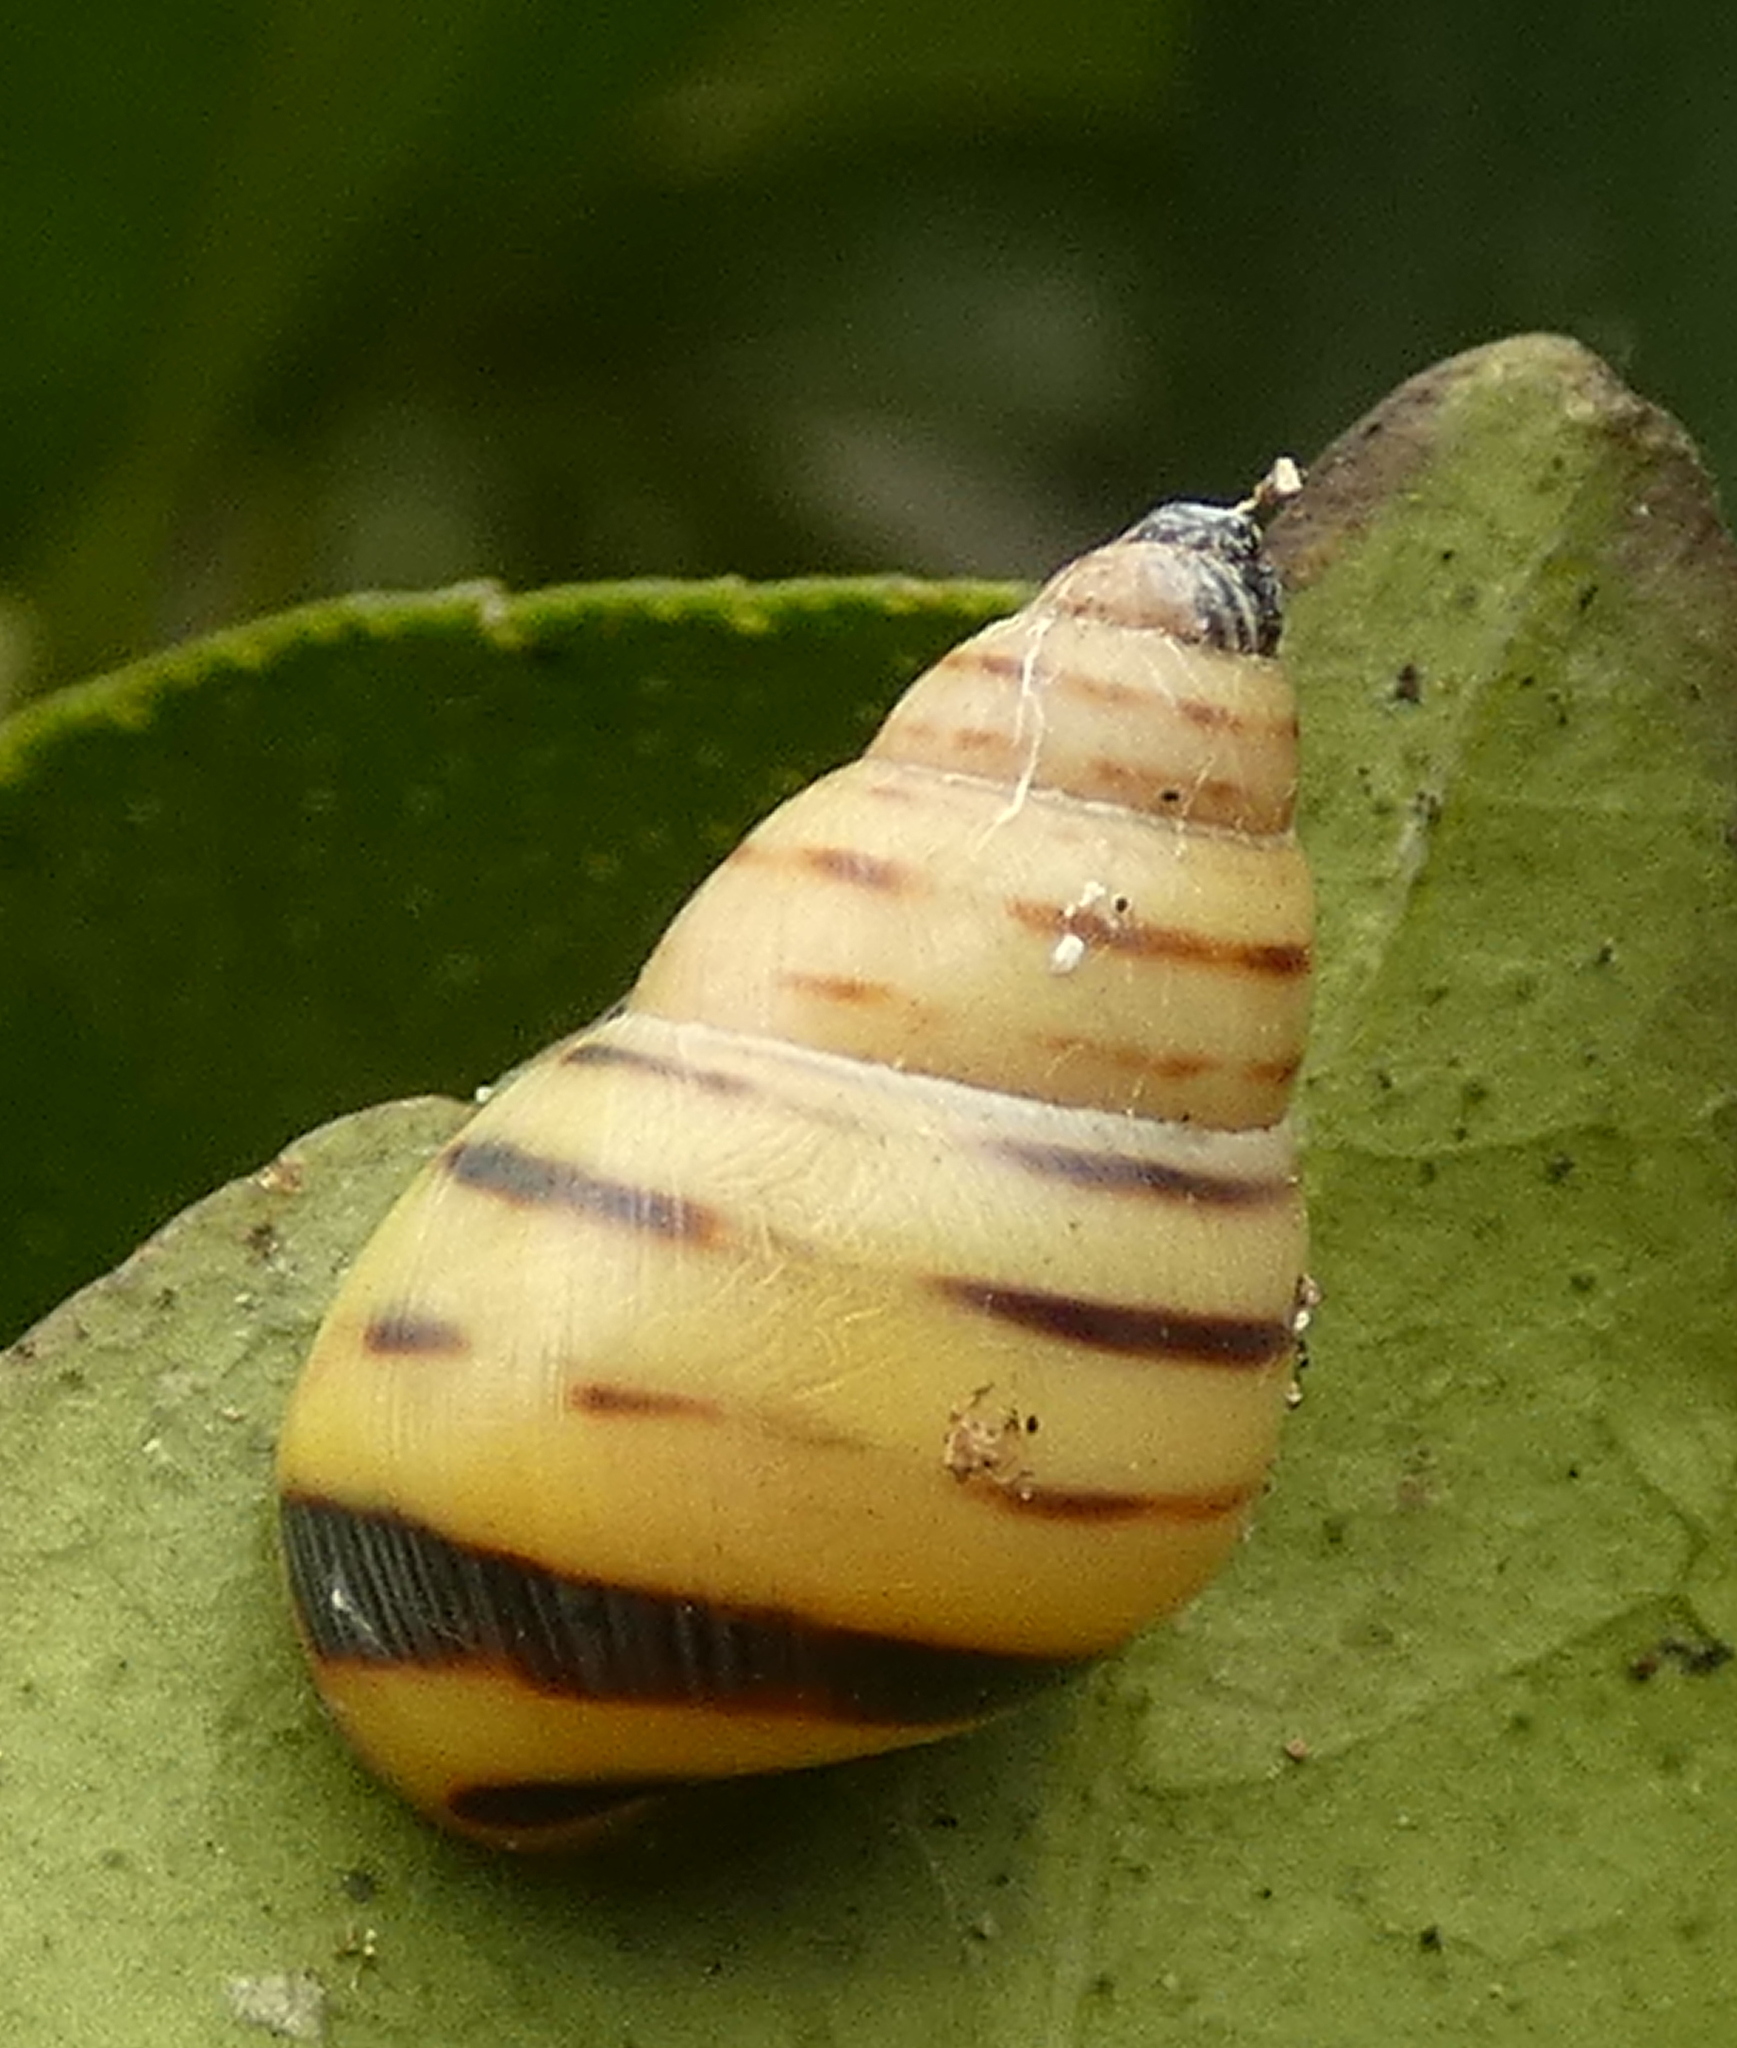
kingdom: Animalia
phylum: Mollusca
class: Gastropoda
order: Stylommatophora
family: Bulimulidae
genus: Drymaeus
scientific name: Drymaeus
